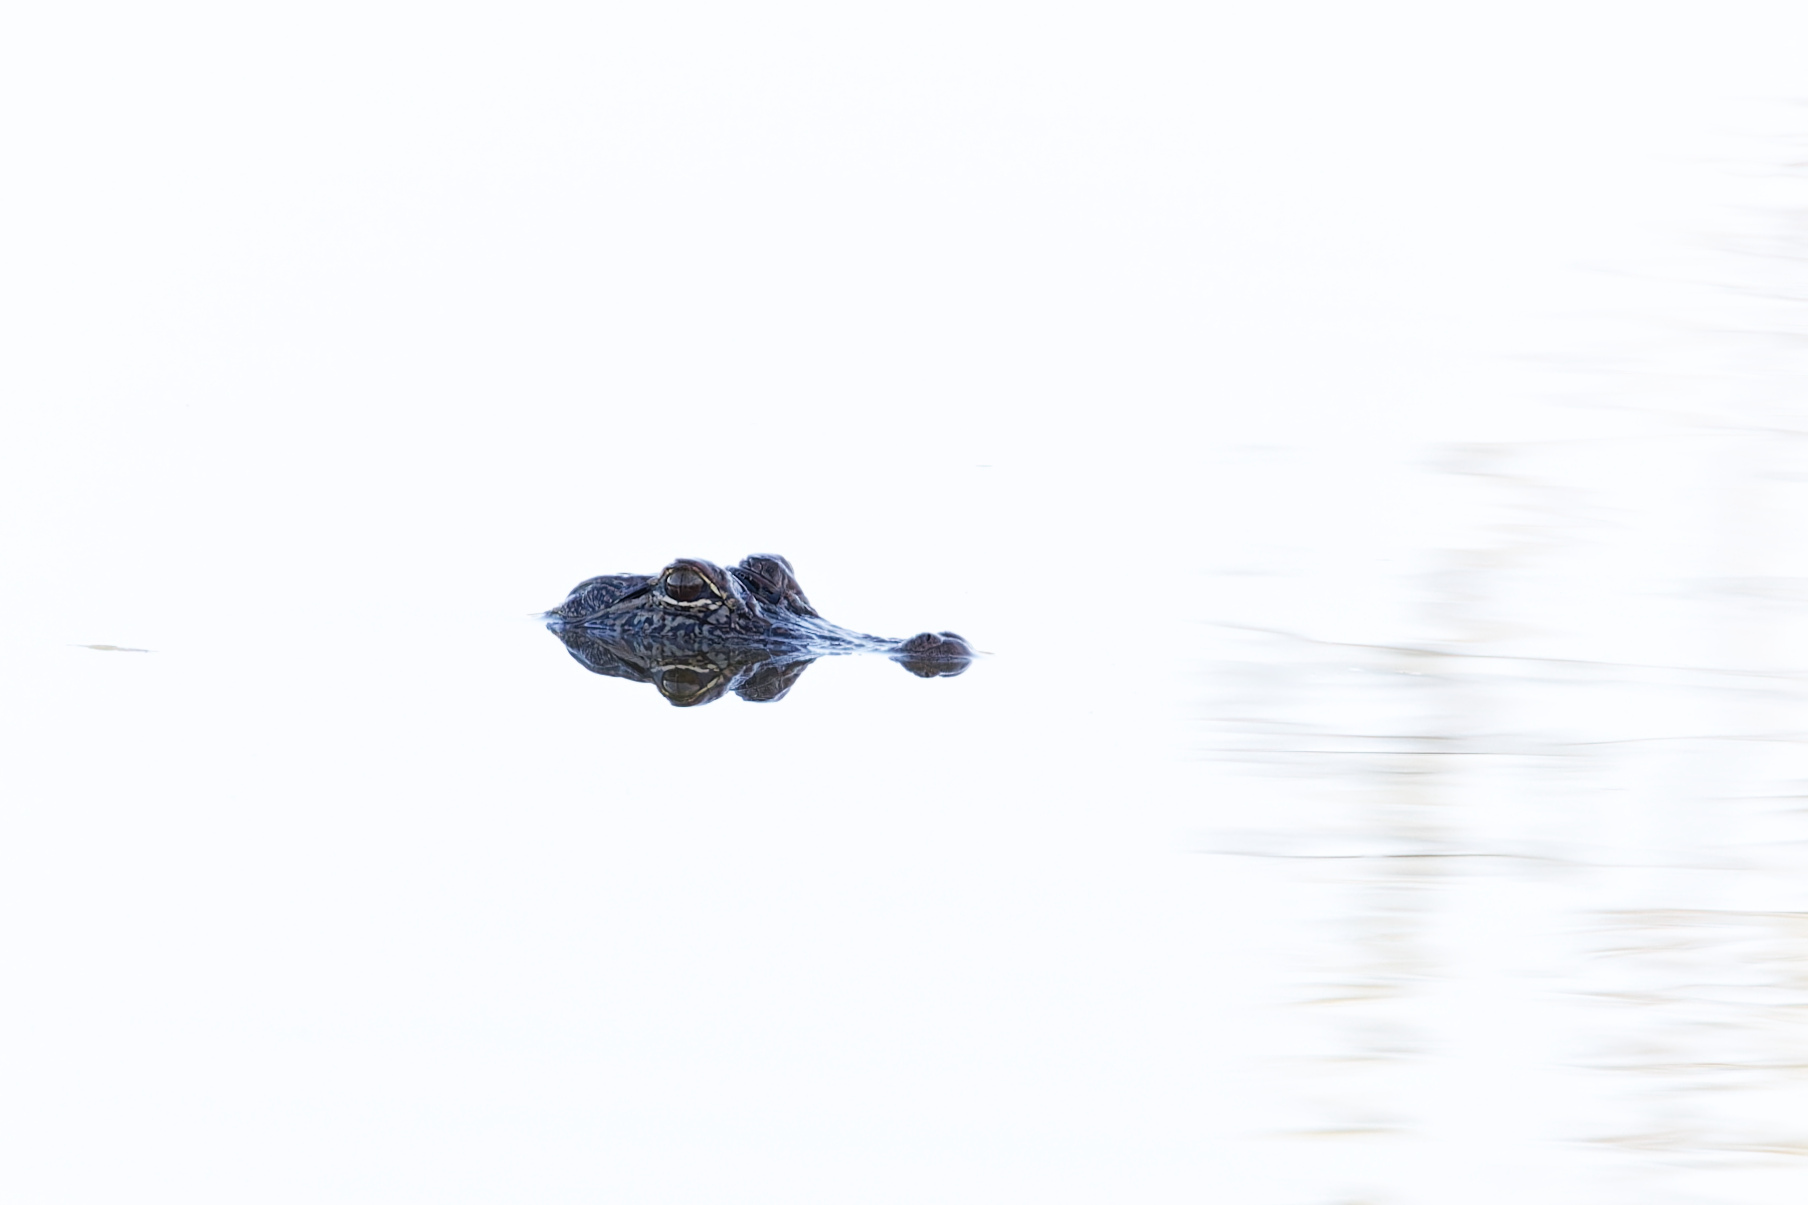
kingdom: Animalia
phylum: Chordata
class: Crocodylia
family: Alligatoridae
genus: Alligator
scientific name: Alligator mississippiensis
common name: American alligator
